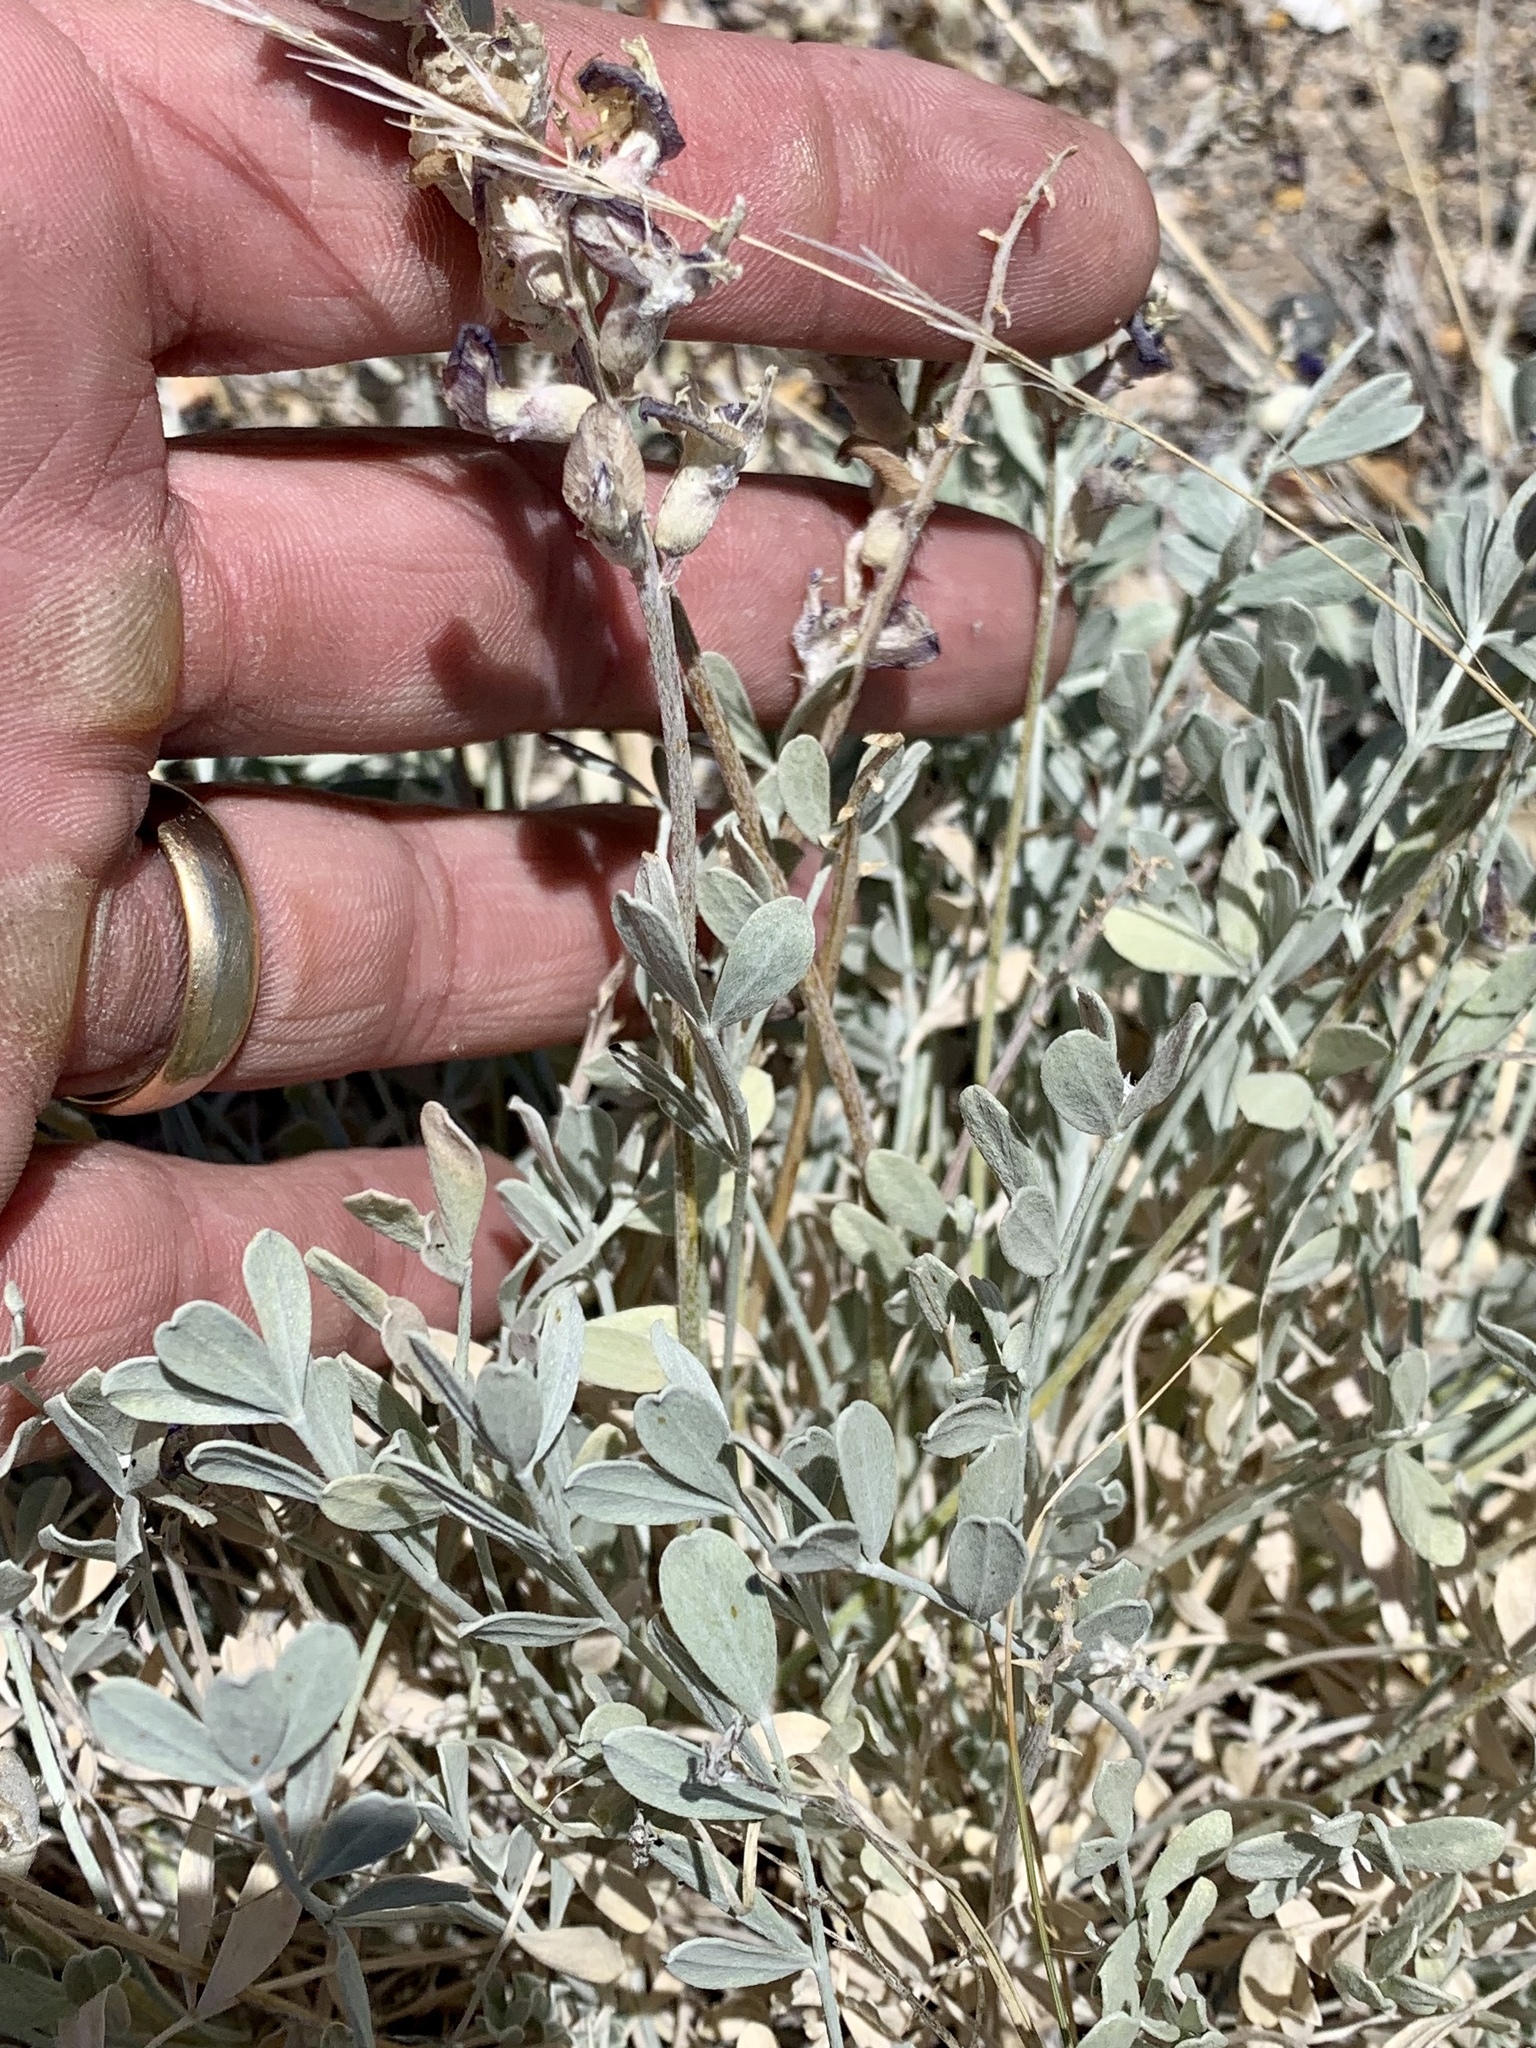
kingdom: Plantae
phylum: Tracheophyta
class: Magnoliopsida
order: Lamiales
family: Lamiaceae
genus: Salvia
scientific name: Salvia dorrii
